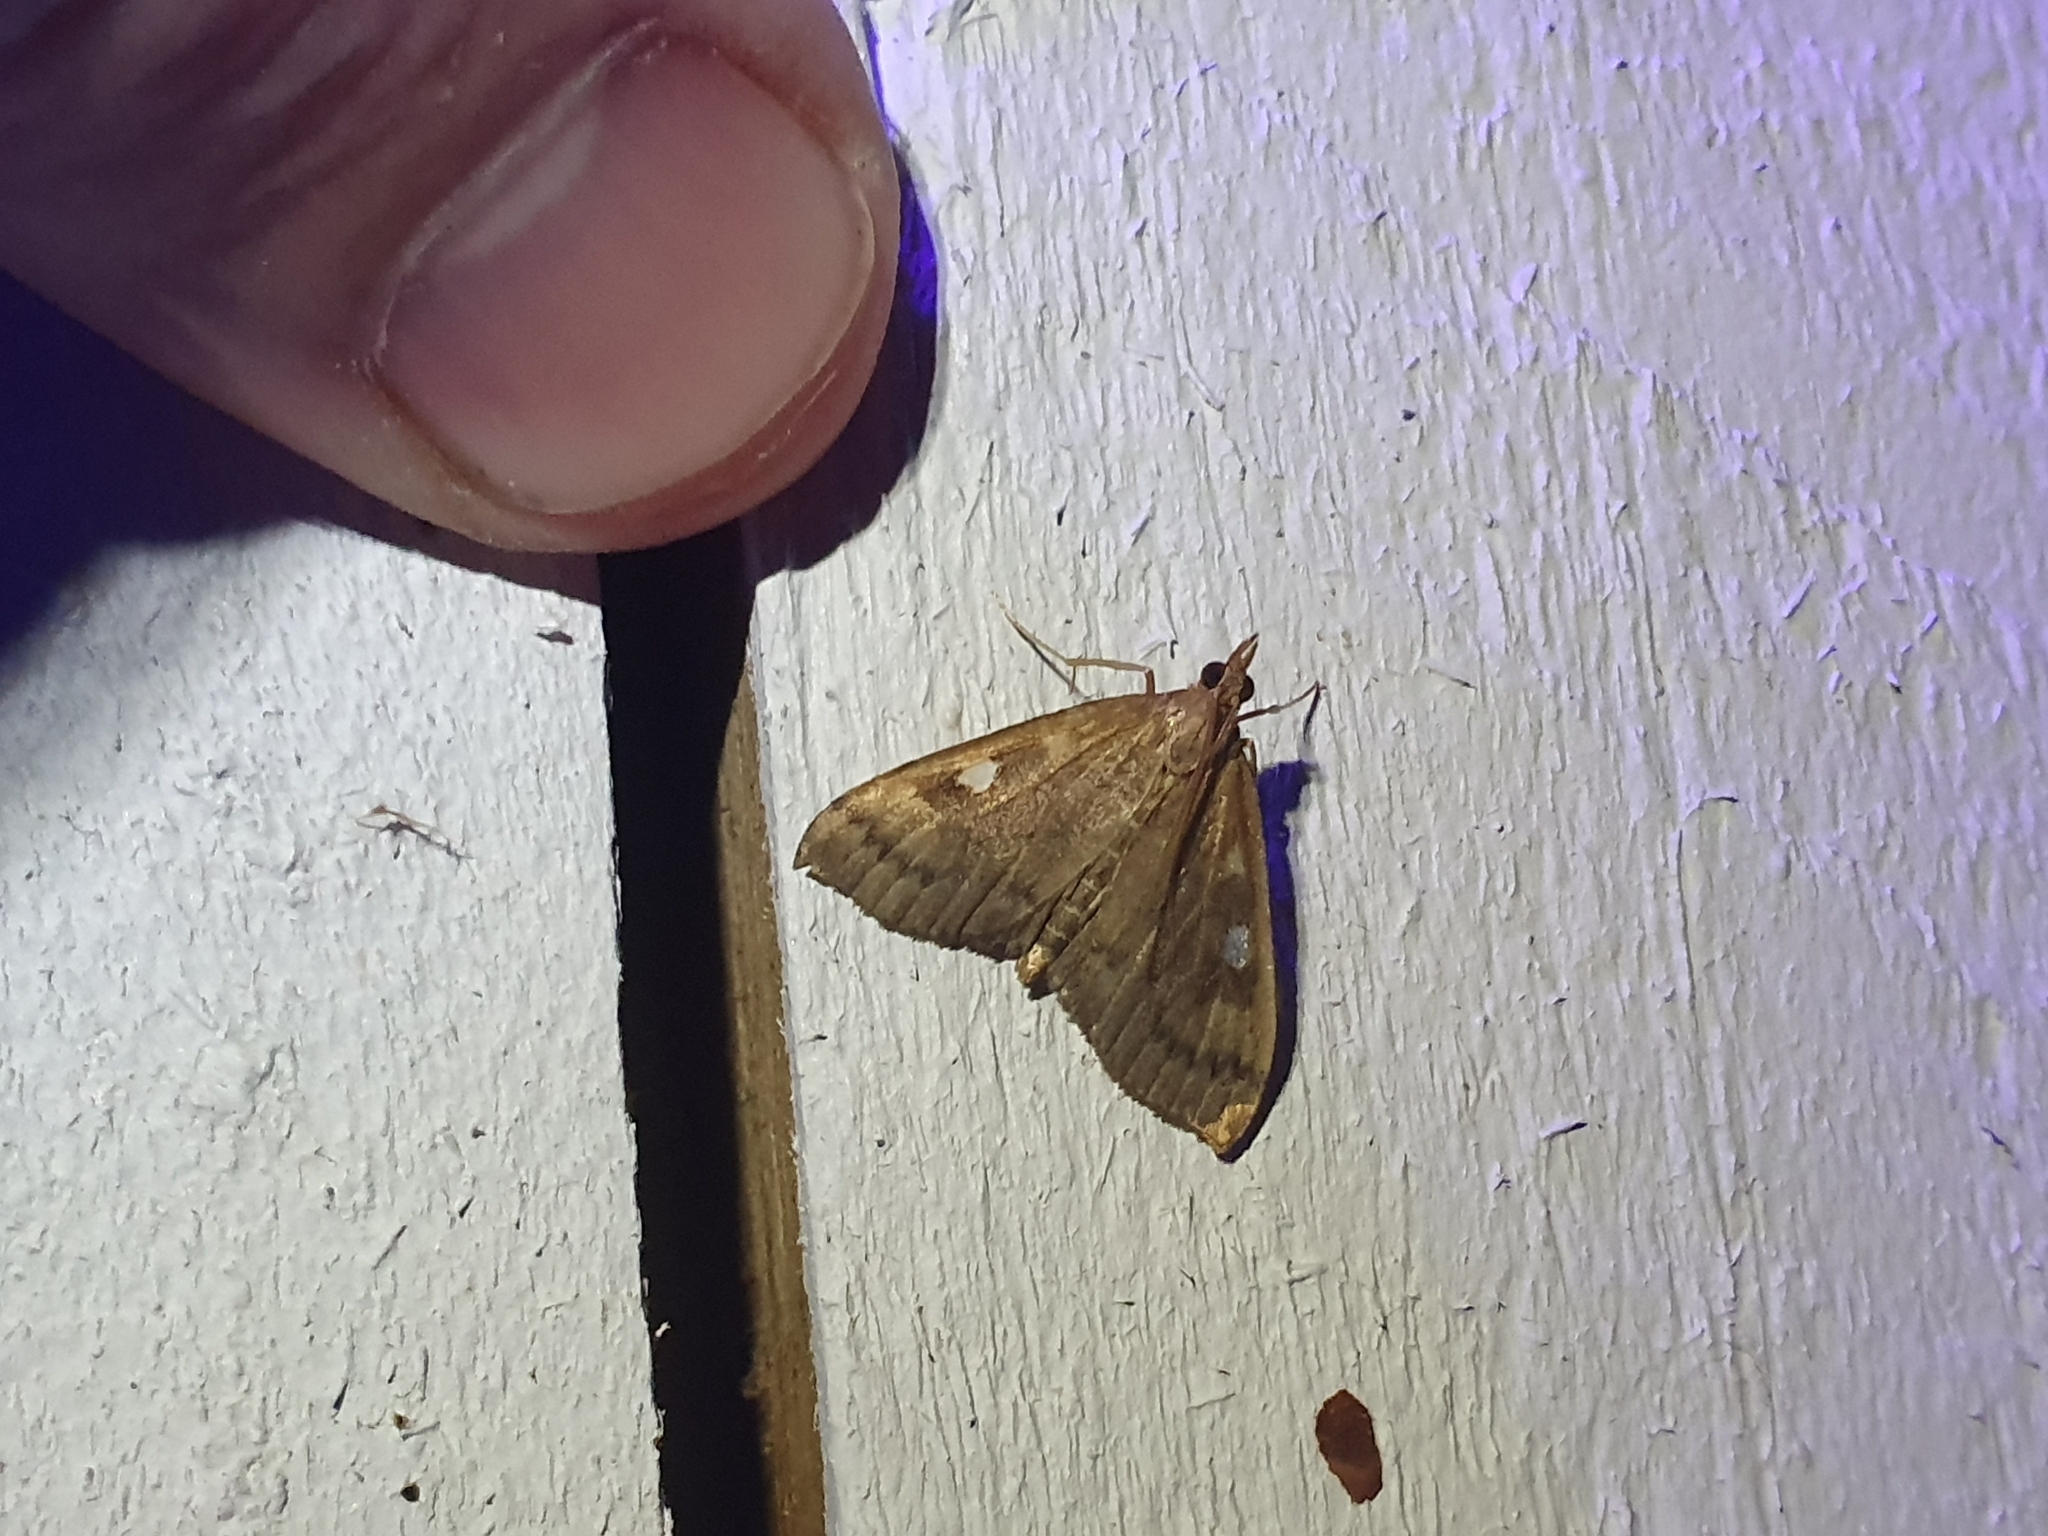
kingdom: Animalia
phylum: Arthropoda
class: Insecta
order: Lepidoptera
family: Crambidae
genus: Udea
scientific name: Udea Mnesictena marmarina
